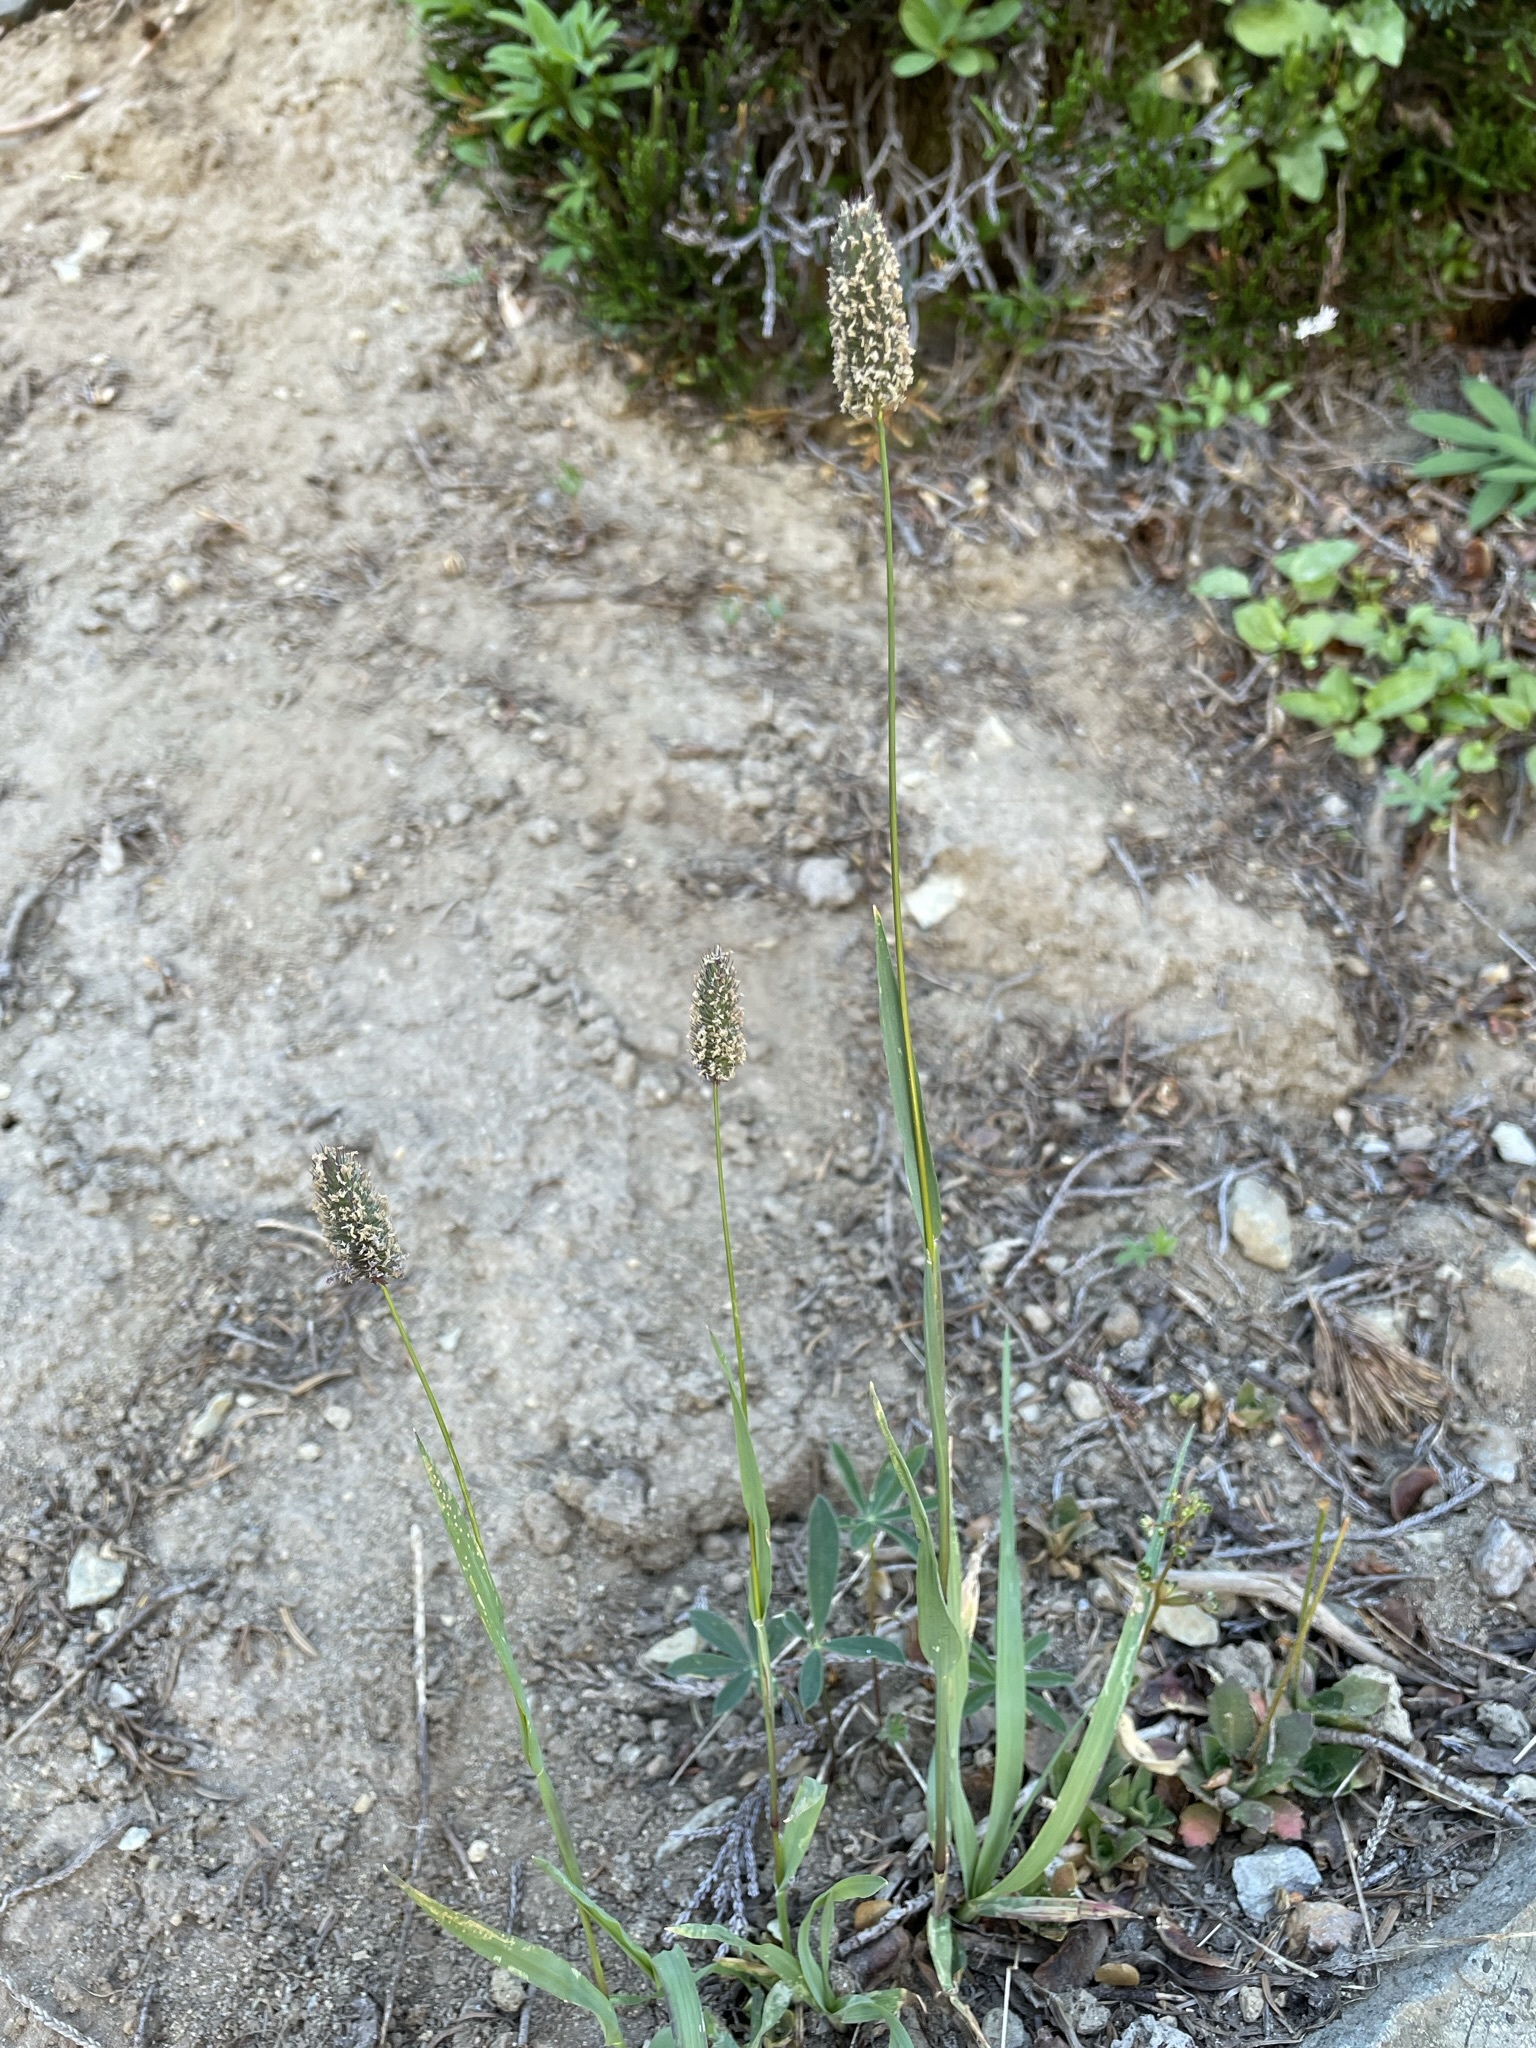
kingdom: Plantae
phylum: Tracheophyta
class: Liliopsida
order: Poales
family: Poaceae
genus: Phleum
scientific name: Phleum alpinum
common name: Alpine cat's-tail
